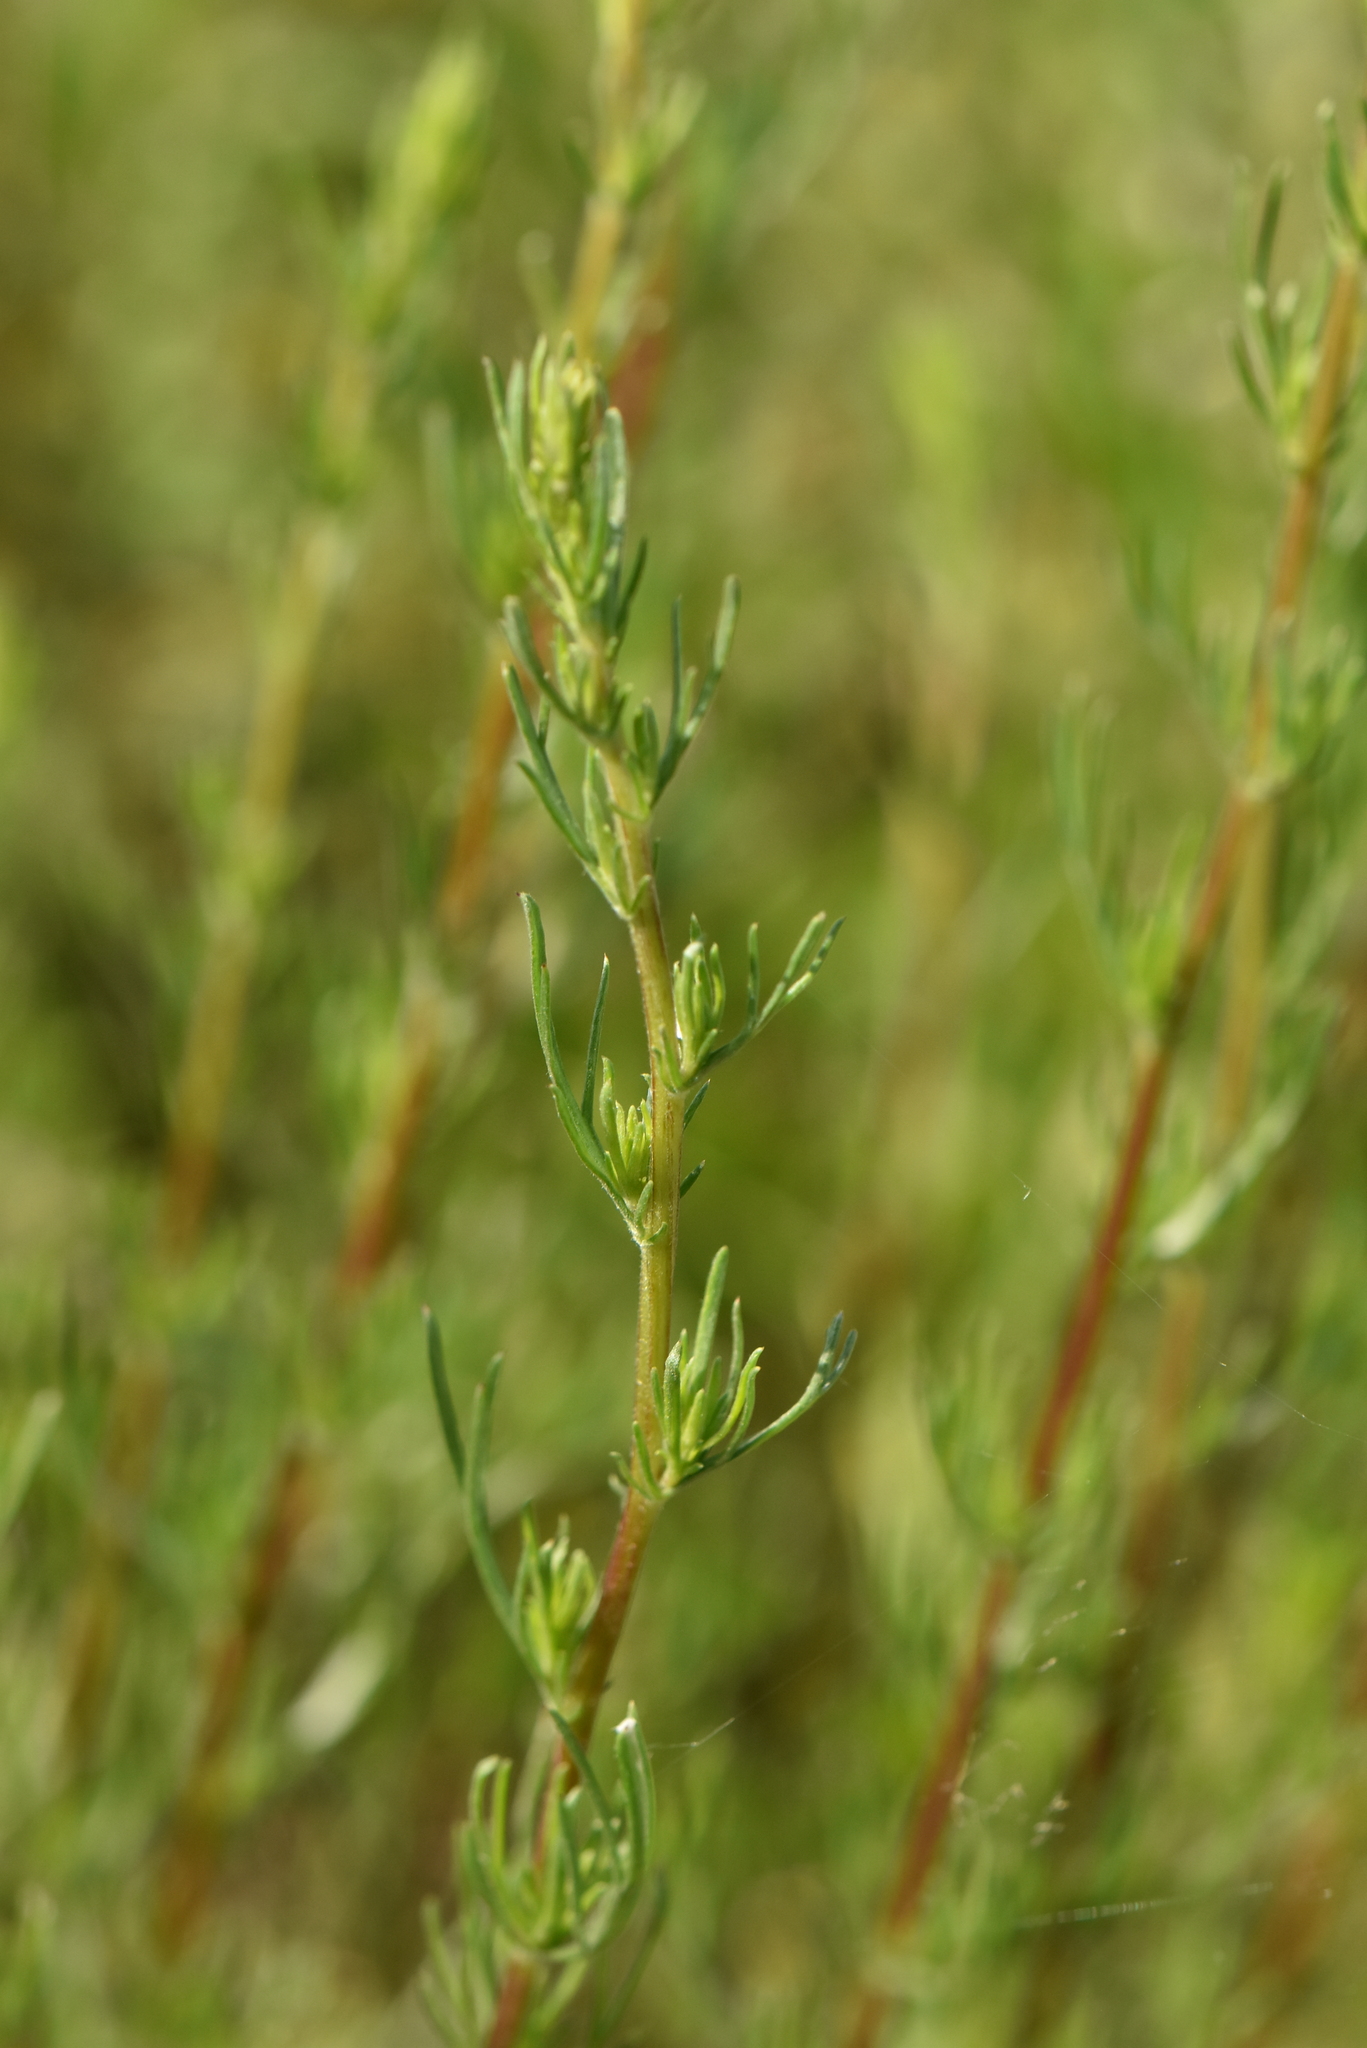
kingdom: Plantae
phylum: Tracheophyta
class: Magnoliopsida
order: Asterales
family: Asteraceae
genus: Artemisia
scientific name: Artemisia campestris
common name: Field wormwood
